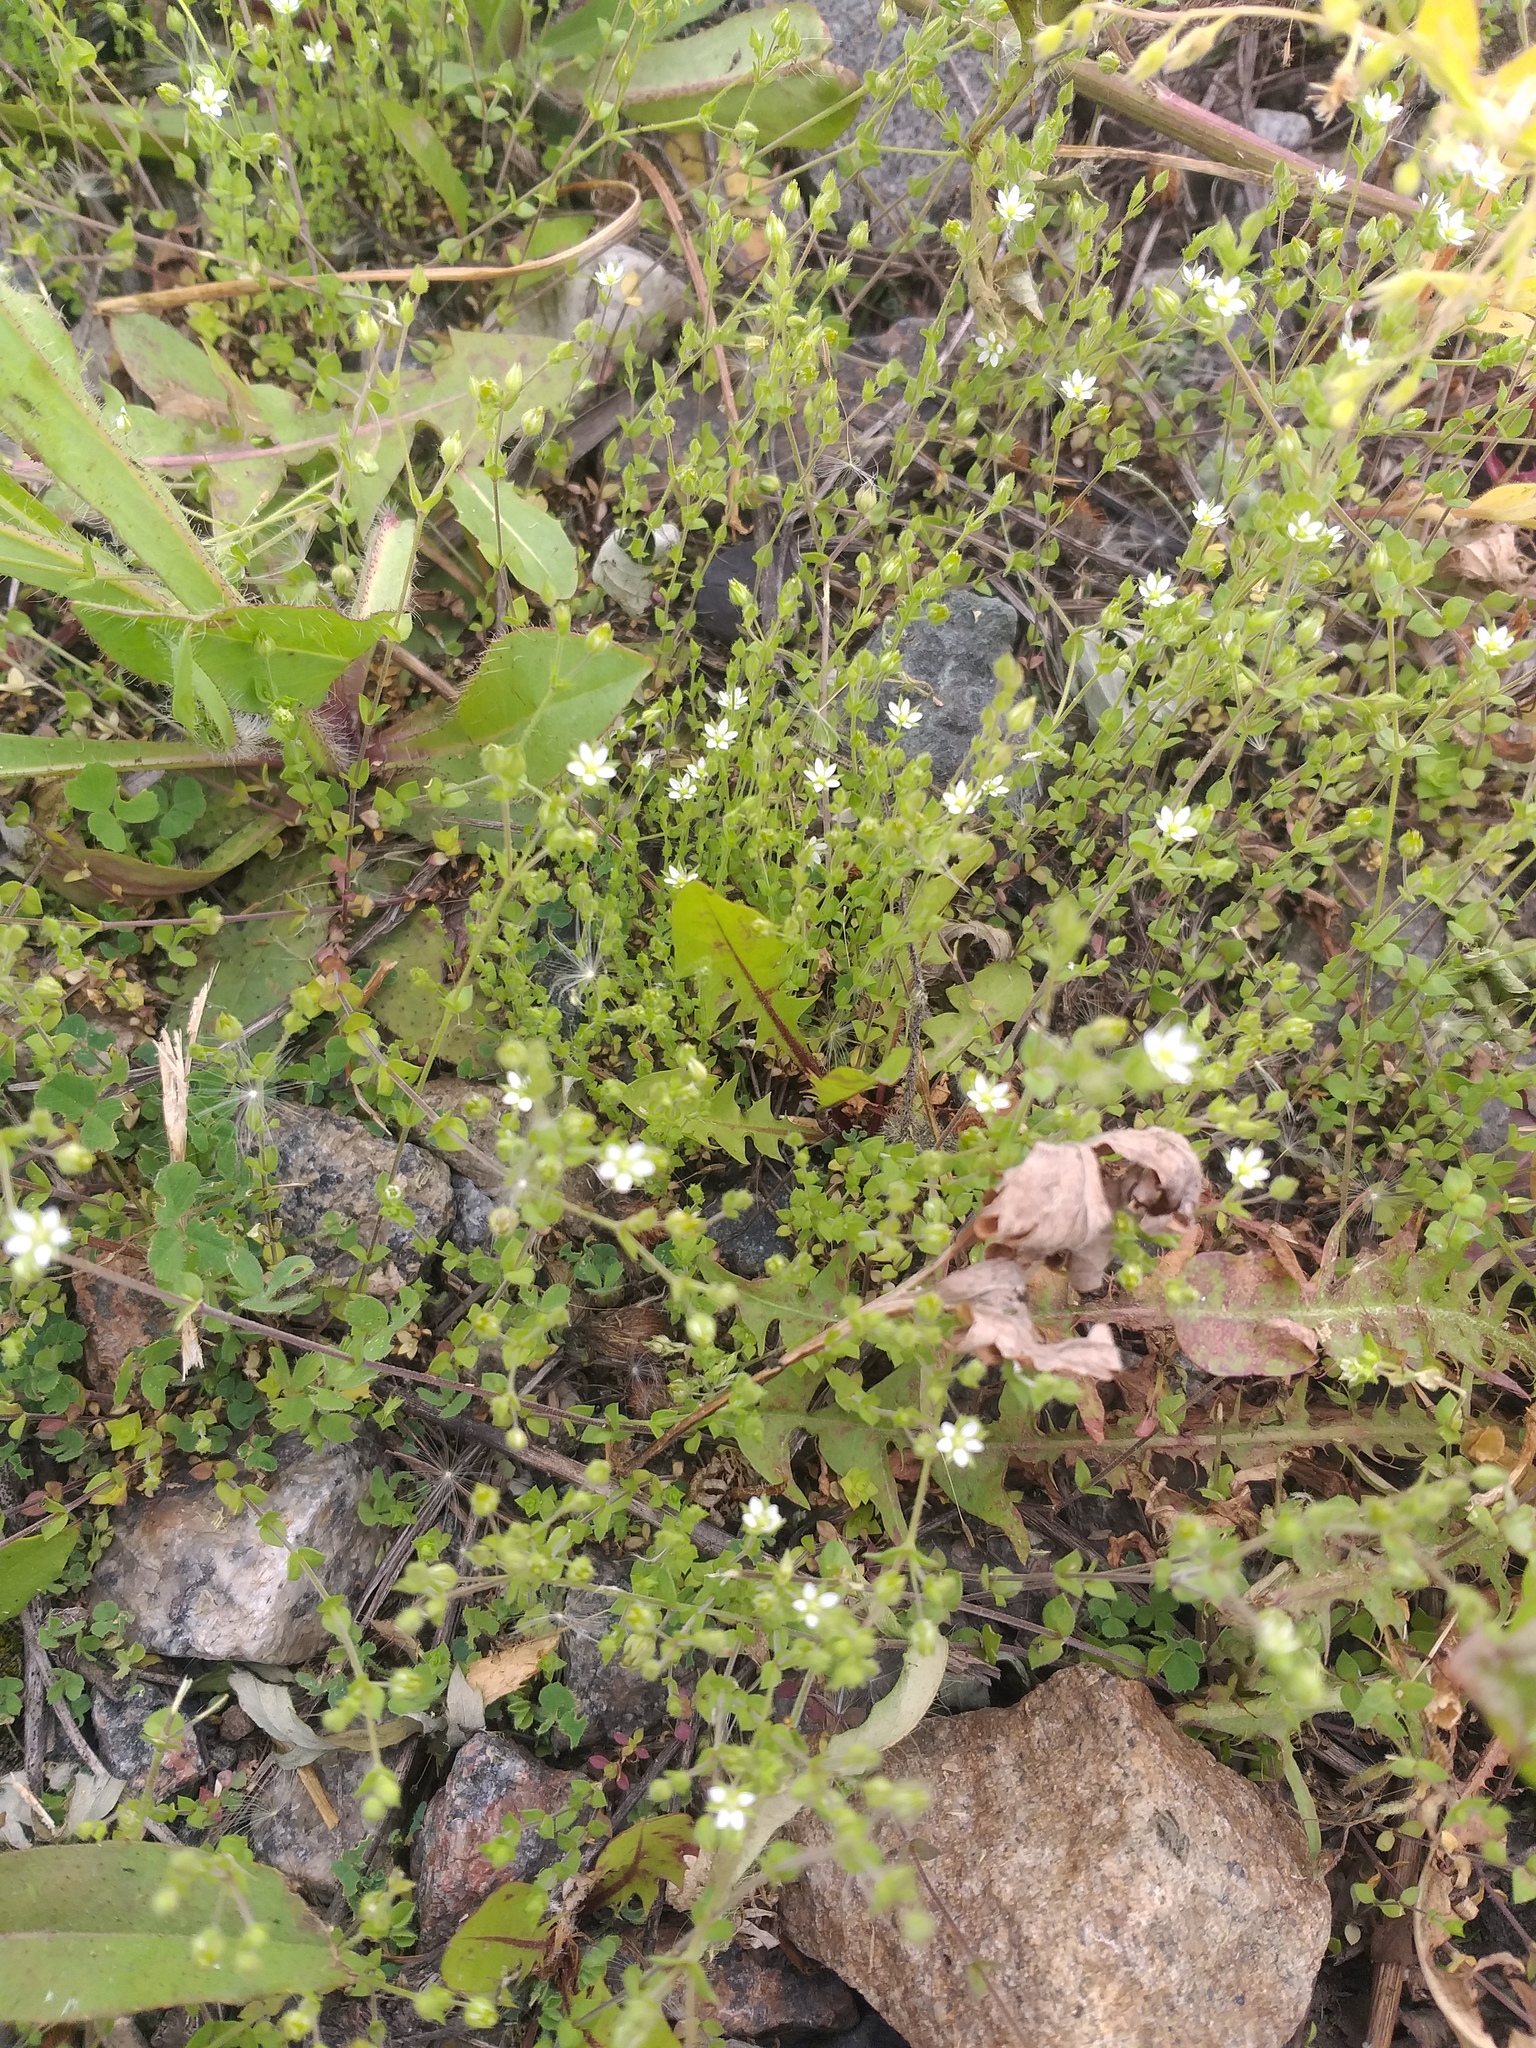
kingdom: Plantae
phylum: Tracheophyta
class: Magnoliopsida
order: Caryophyllales
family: Caryophyllaceae
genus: Arenaria
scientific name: Arenaria serpyllifolia
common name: Thyme-leaved sandwort
